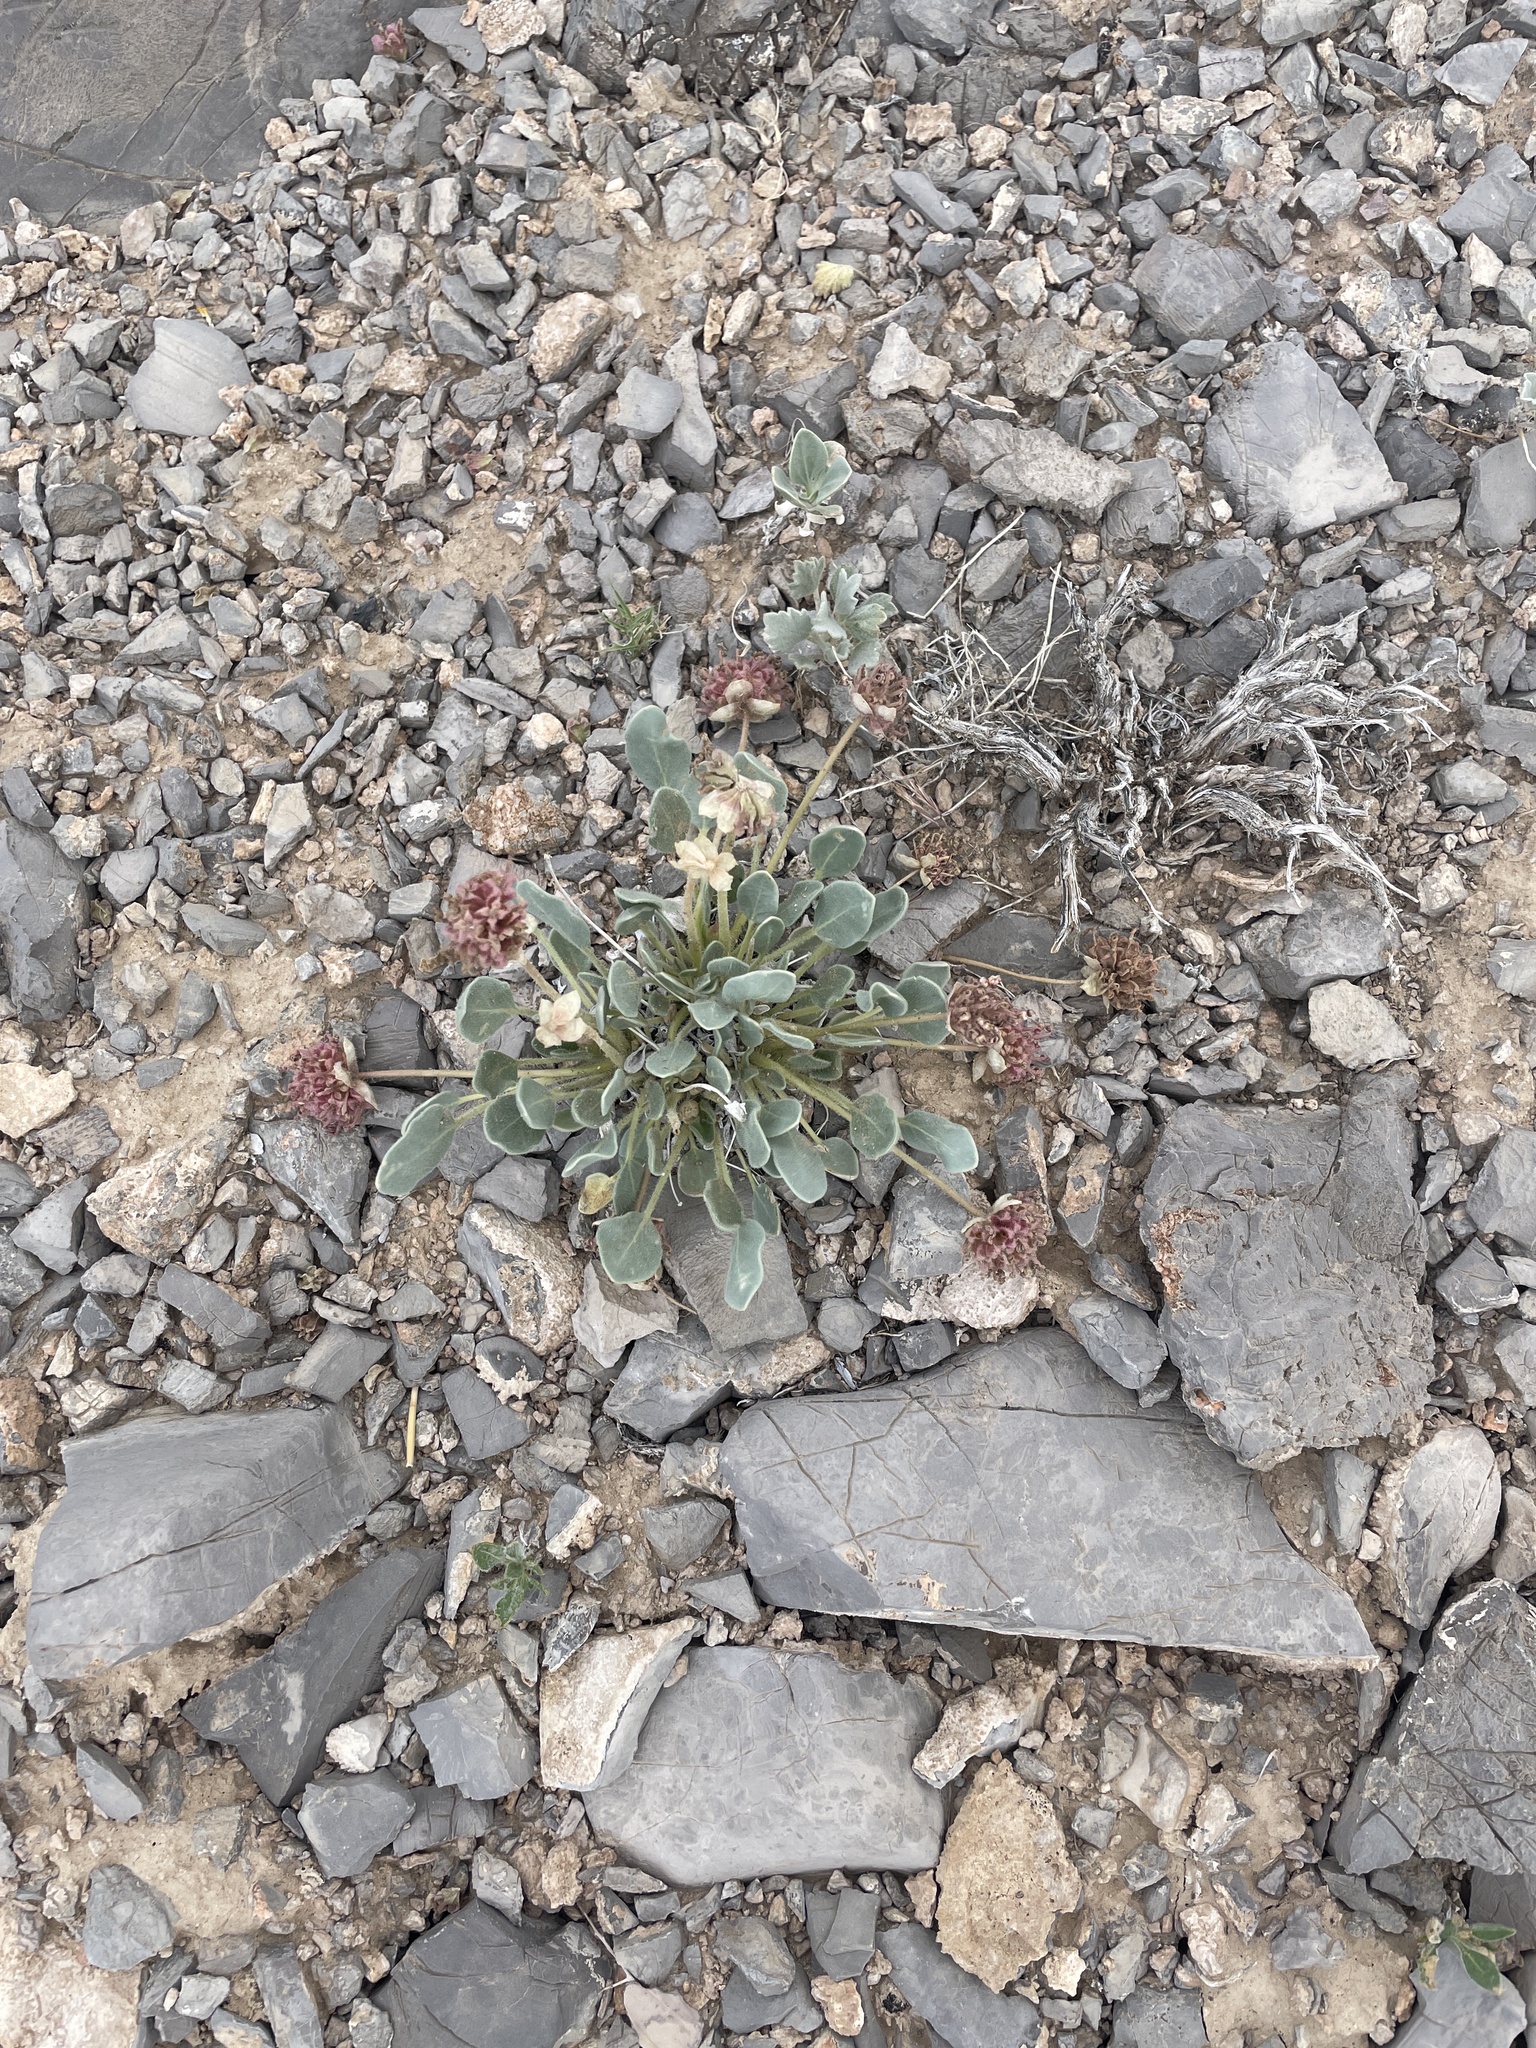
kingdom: Plantae
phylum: Tracheophyta
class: Magnoliopsida
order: Caryophyllales
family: Nyctaginaceae
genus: Abronia
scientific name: Abronia nana
